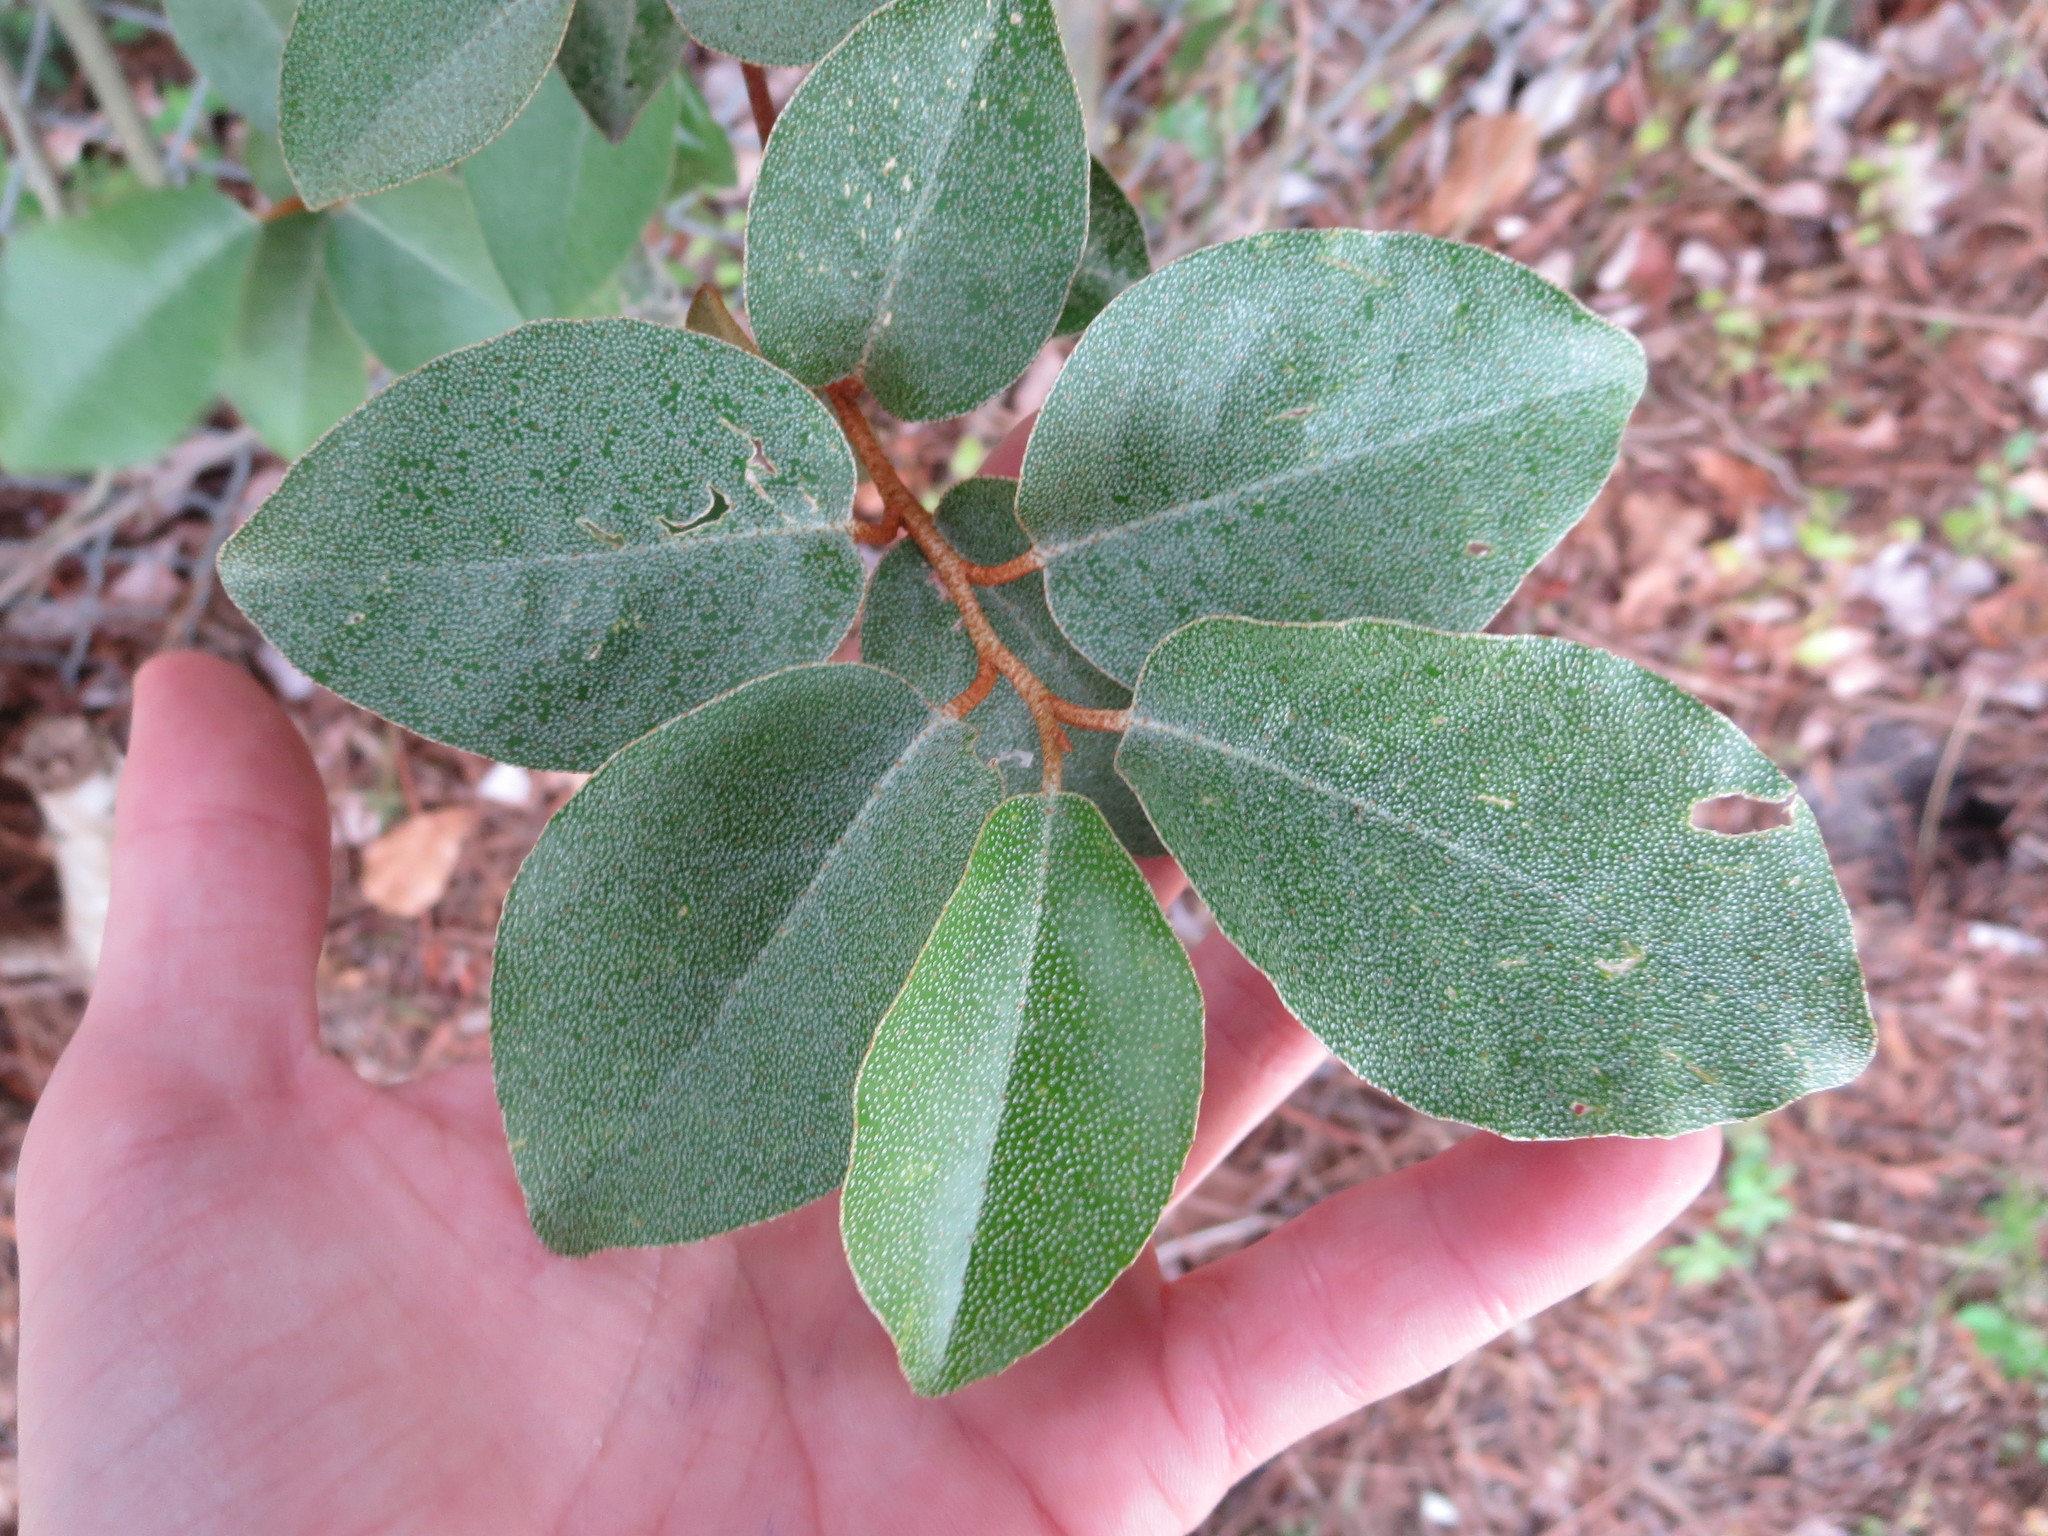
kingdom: Plantae
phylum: Tracheophyta
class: Magnoliopsida
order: Rosales
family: Elaeagnaceae
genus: Elaeagnus
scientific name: Elaeagnus pungens
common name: Spiny oleaster
